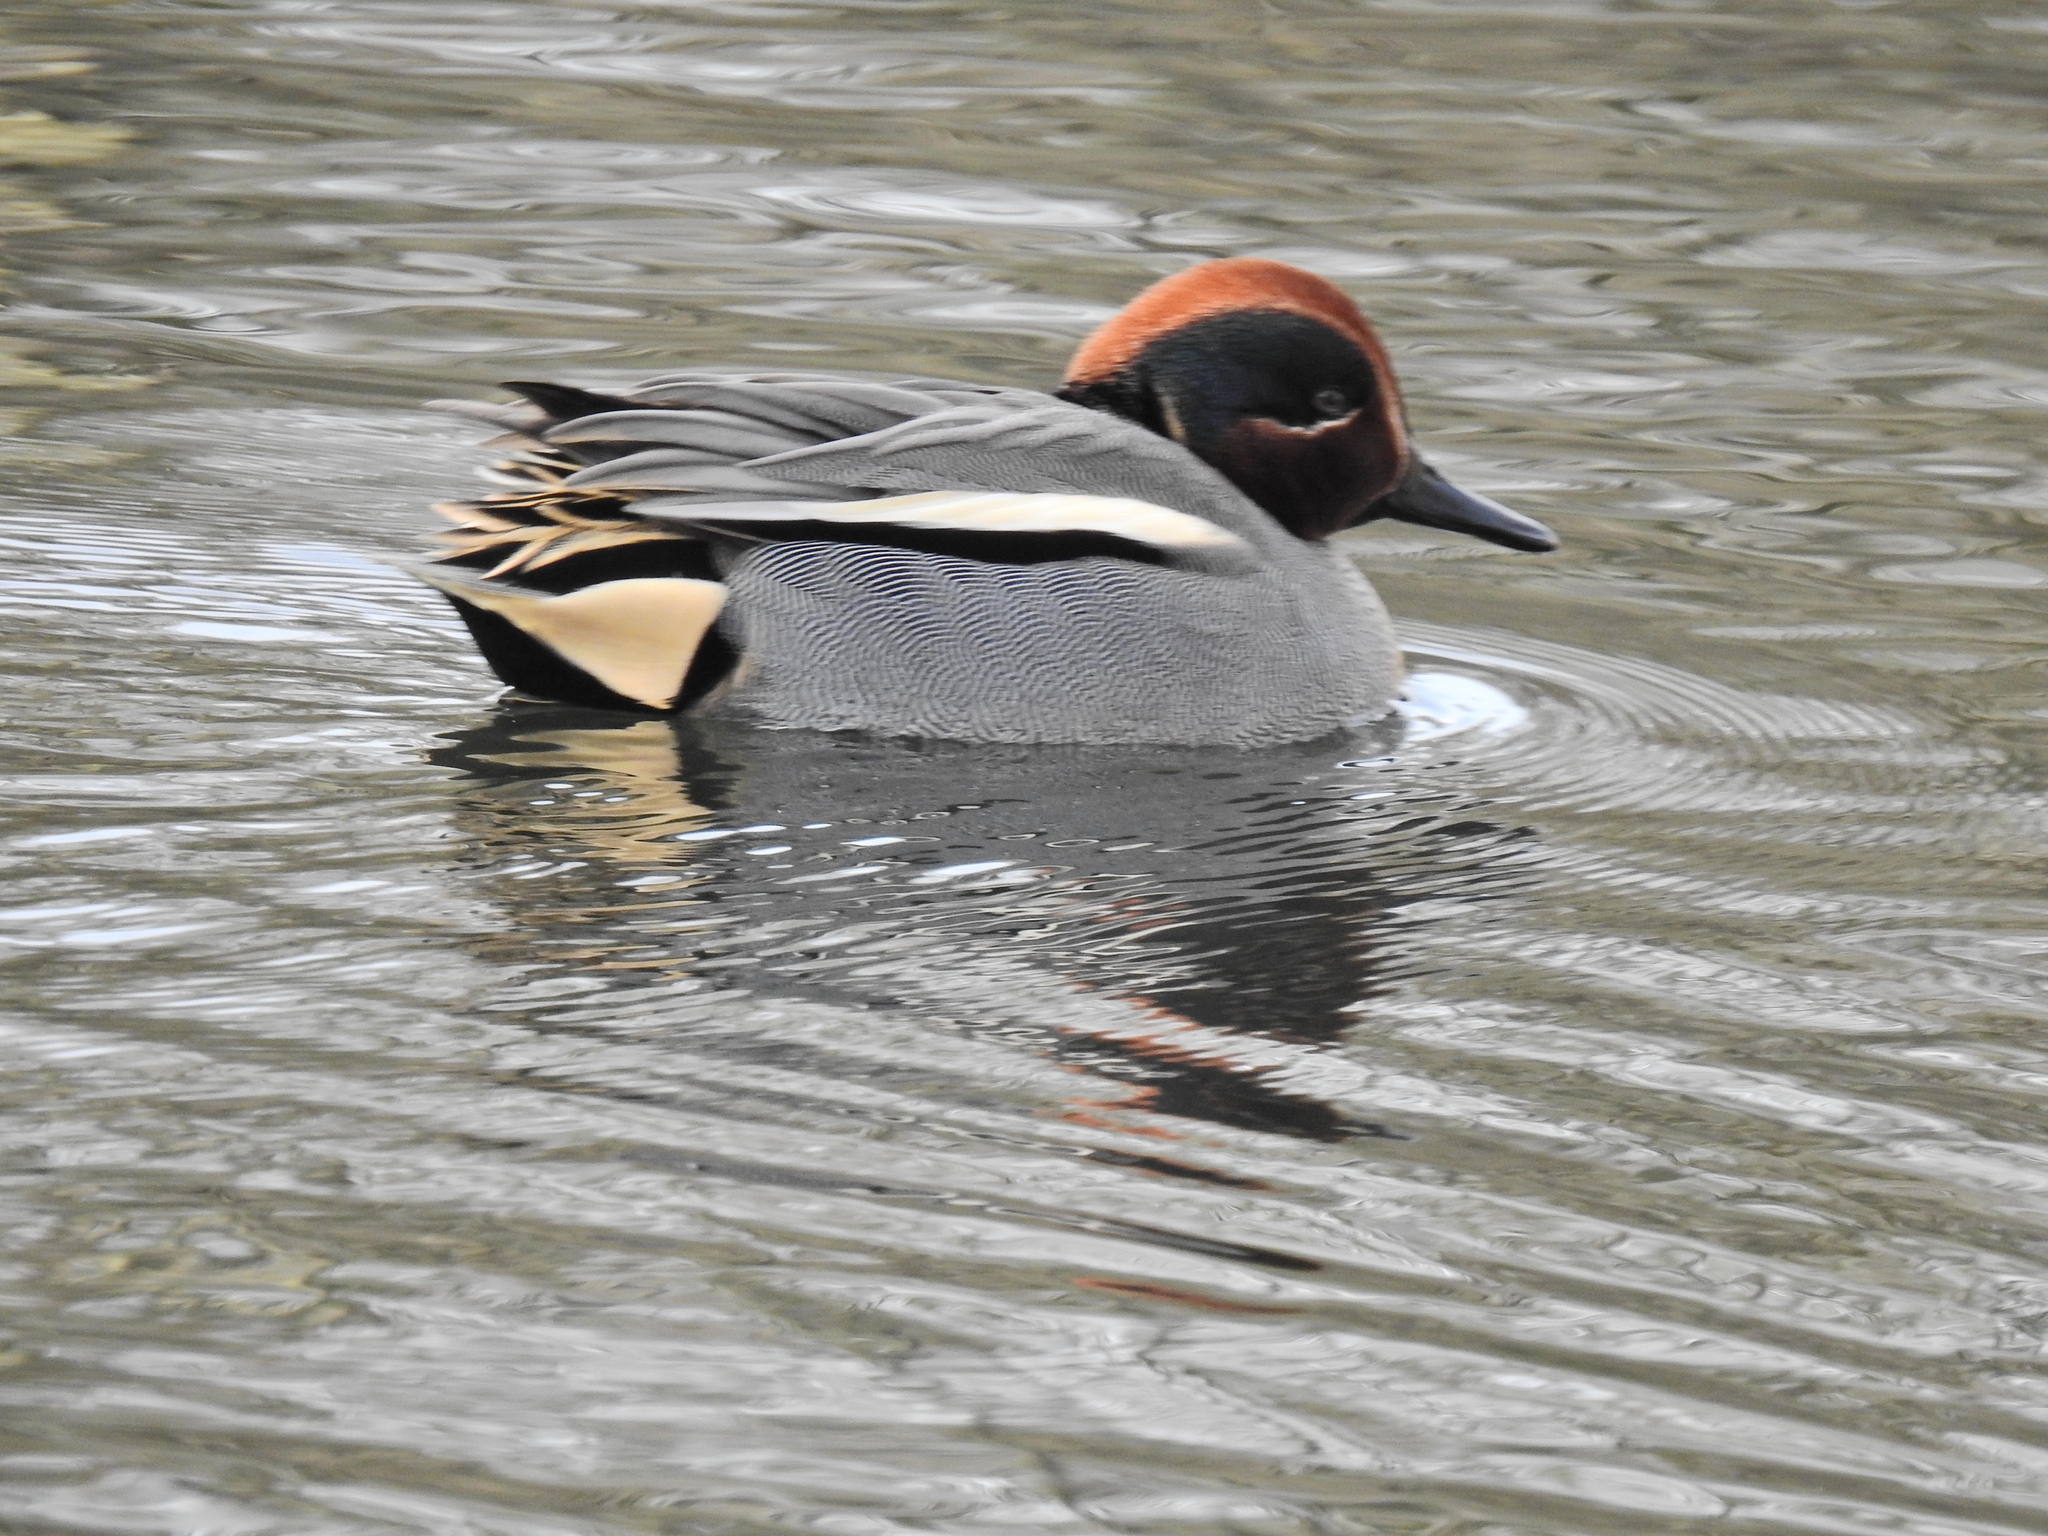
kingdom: Animalia
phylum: Chordata
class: Aves
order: Anseriformes
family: Anatidae
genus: Anas
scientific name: Anas crecca
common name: Eurasian teal
